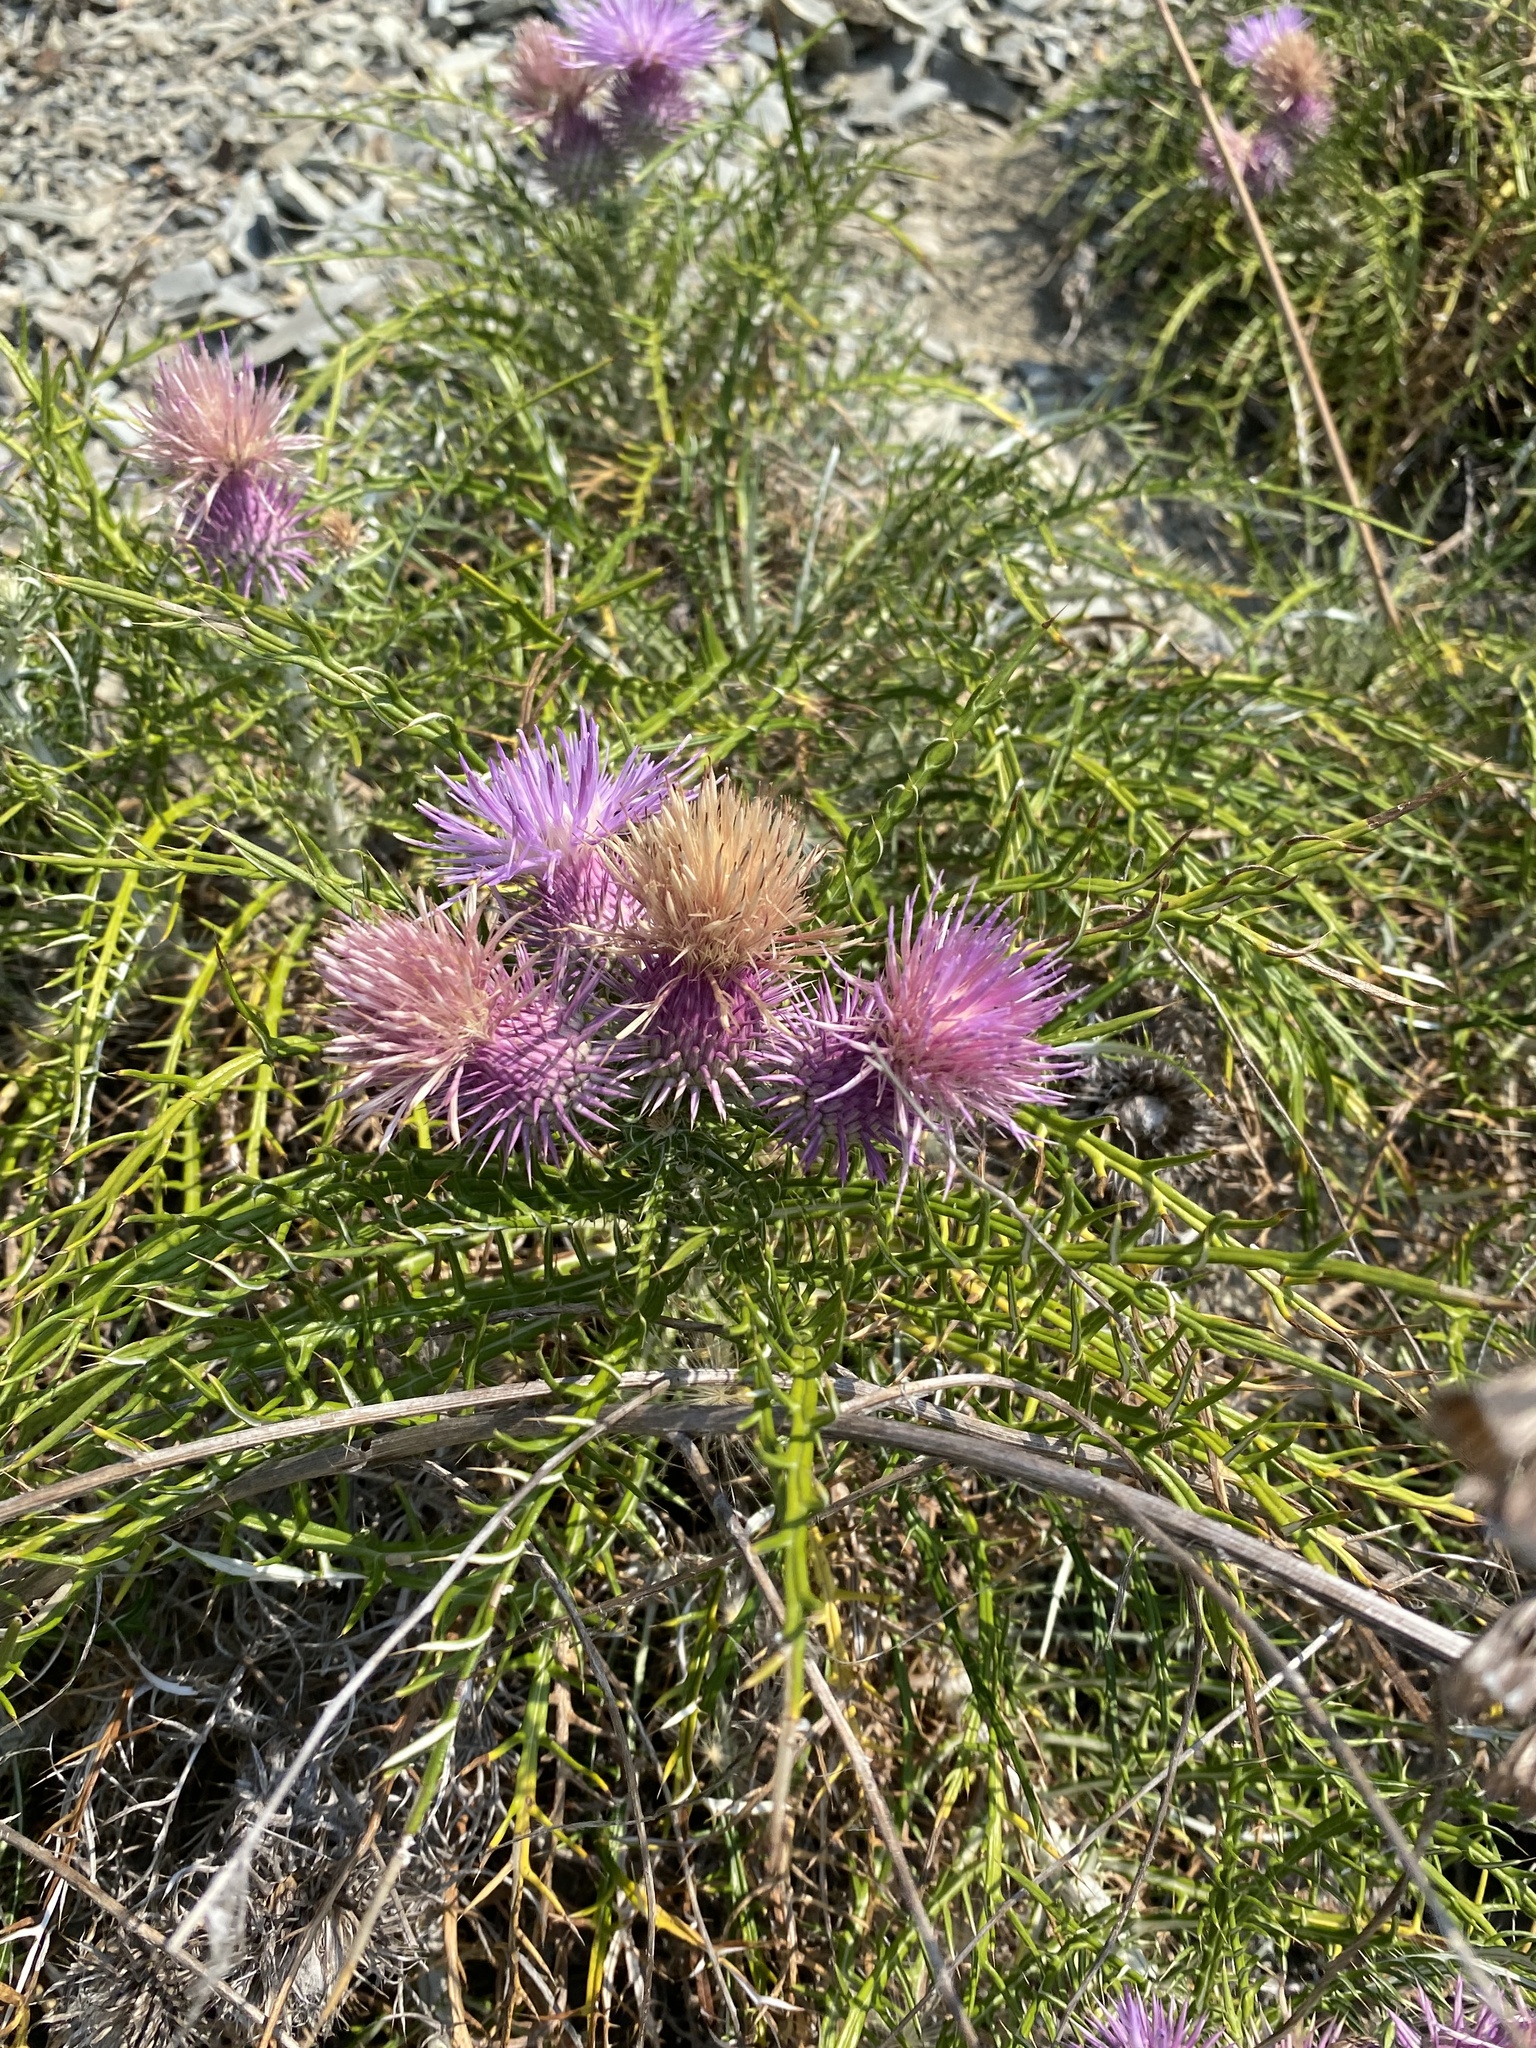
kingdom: Plantae
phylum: Tracheophyta
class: Magnoliopsida
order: Asterales
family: Asteraceae
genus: Ptilostemon
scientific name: Ptilostemon echinocephalus
